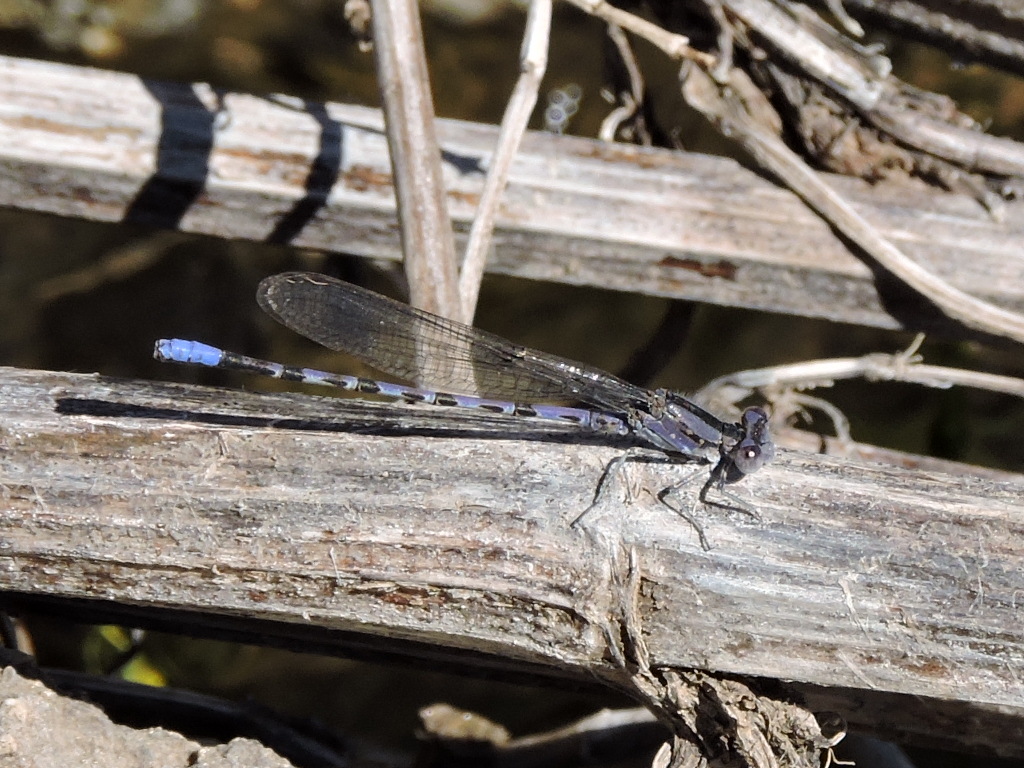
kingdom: Animalia
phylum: Arthropoda
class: Insecta
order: Odonata
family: Coenagrionidae
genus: Argia
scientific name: Argia immunda
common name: Kiowa dancer
